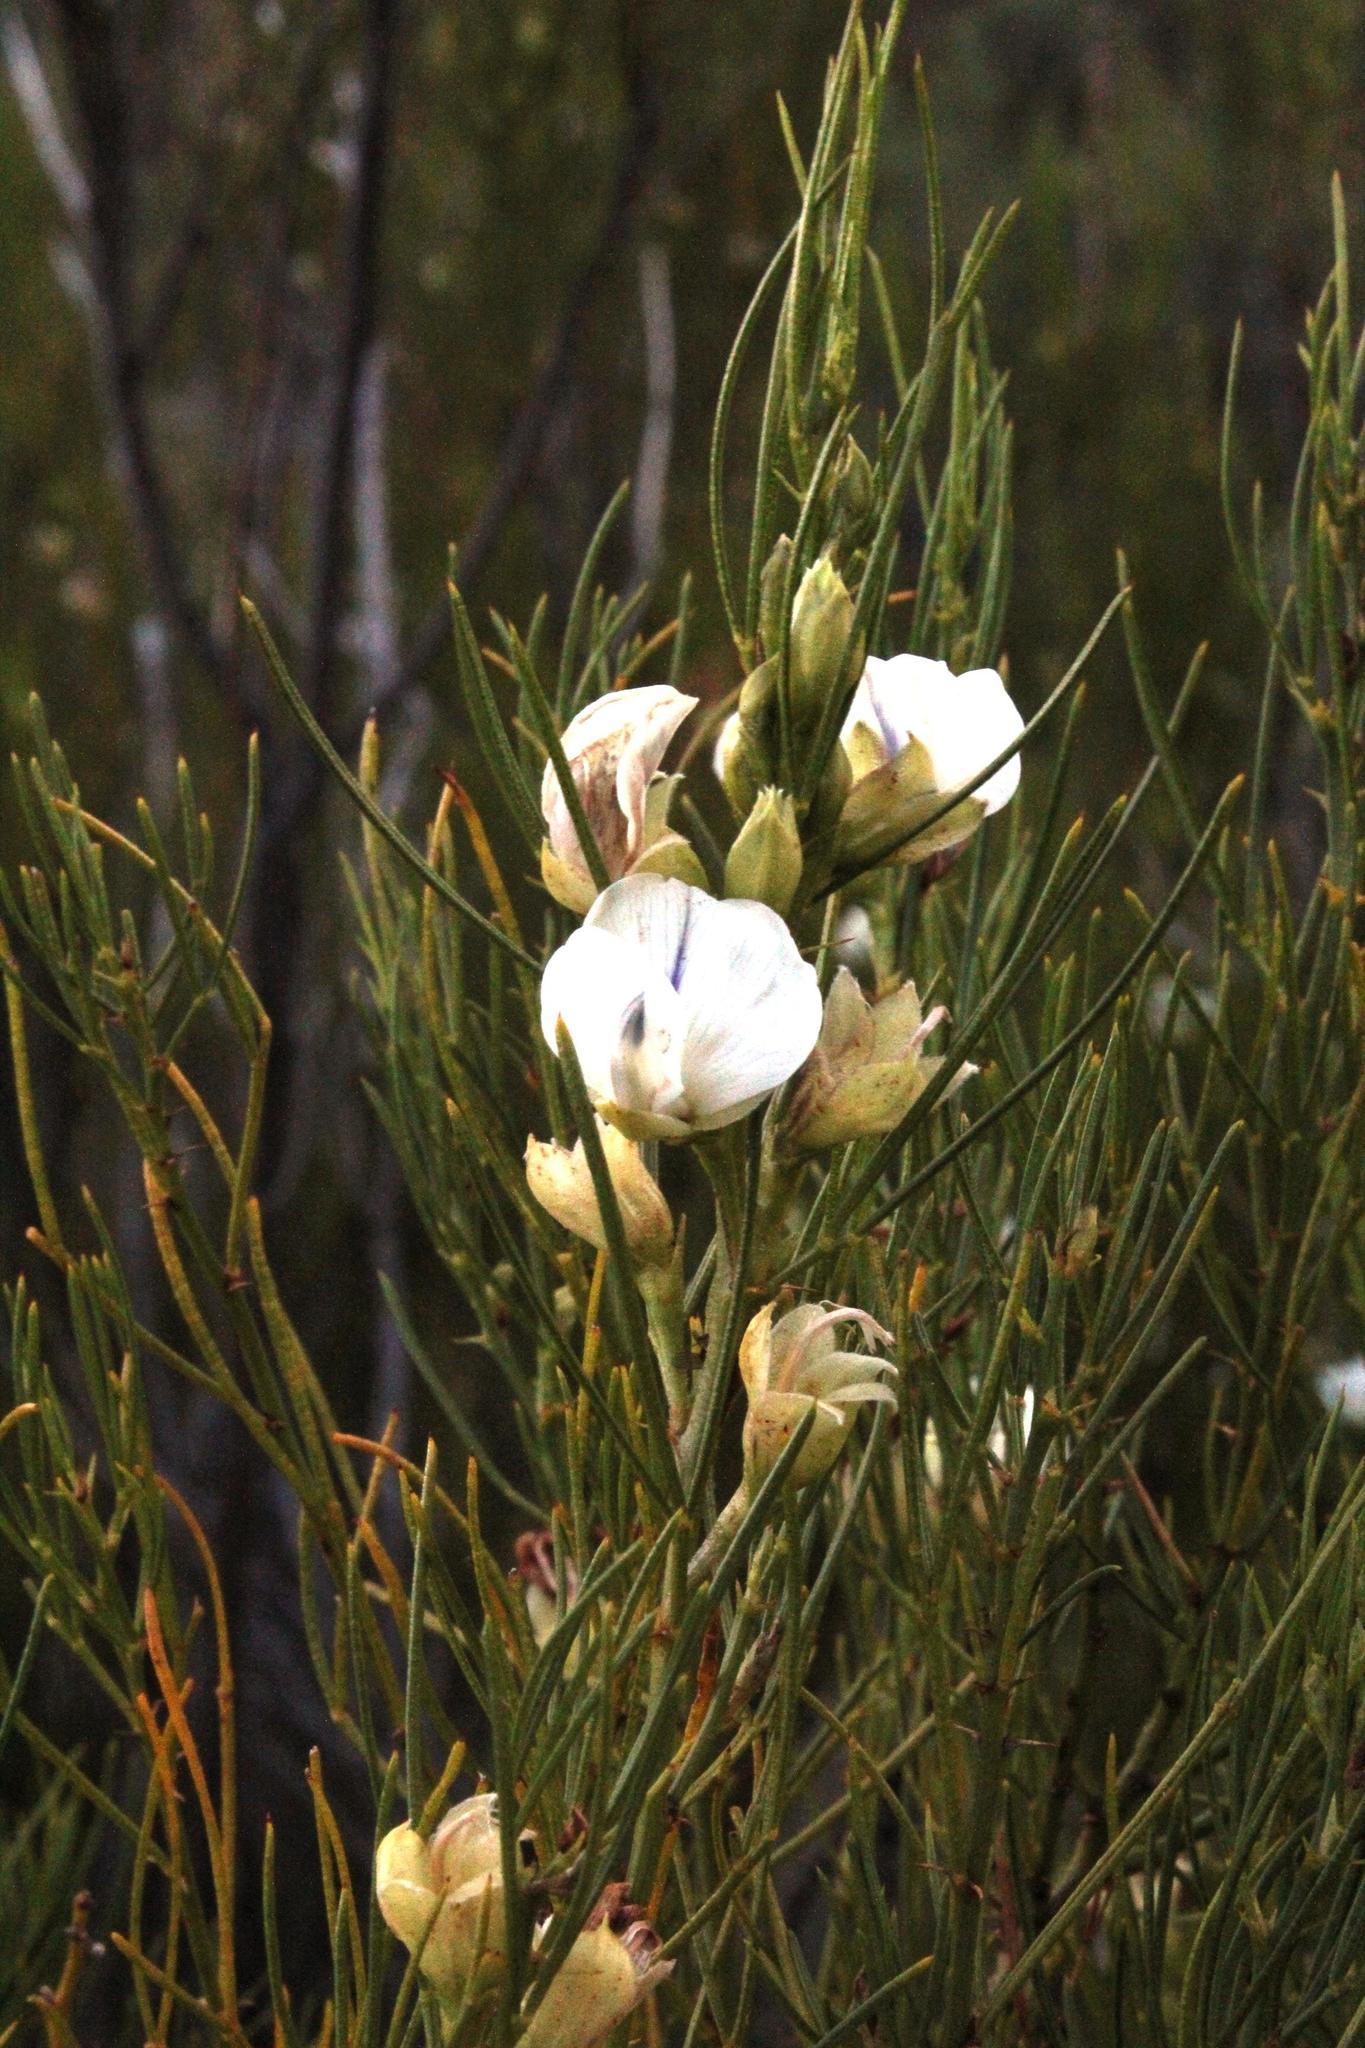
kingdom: Plantae
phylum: Tracheophyta
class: Magnoliopsida
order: Fabales
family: Fabaceae
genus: Psoralea
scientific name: Psoralea
